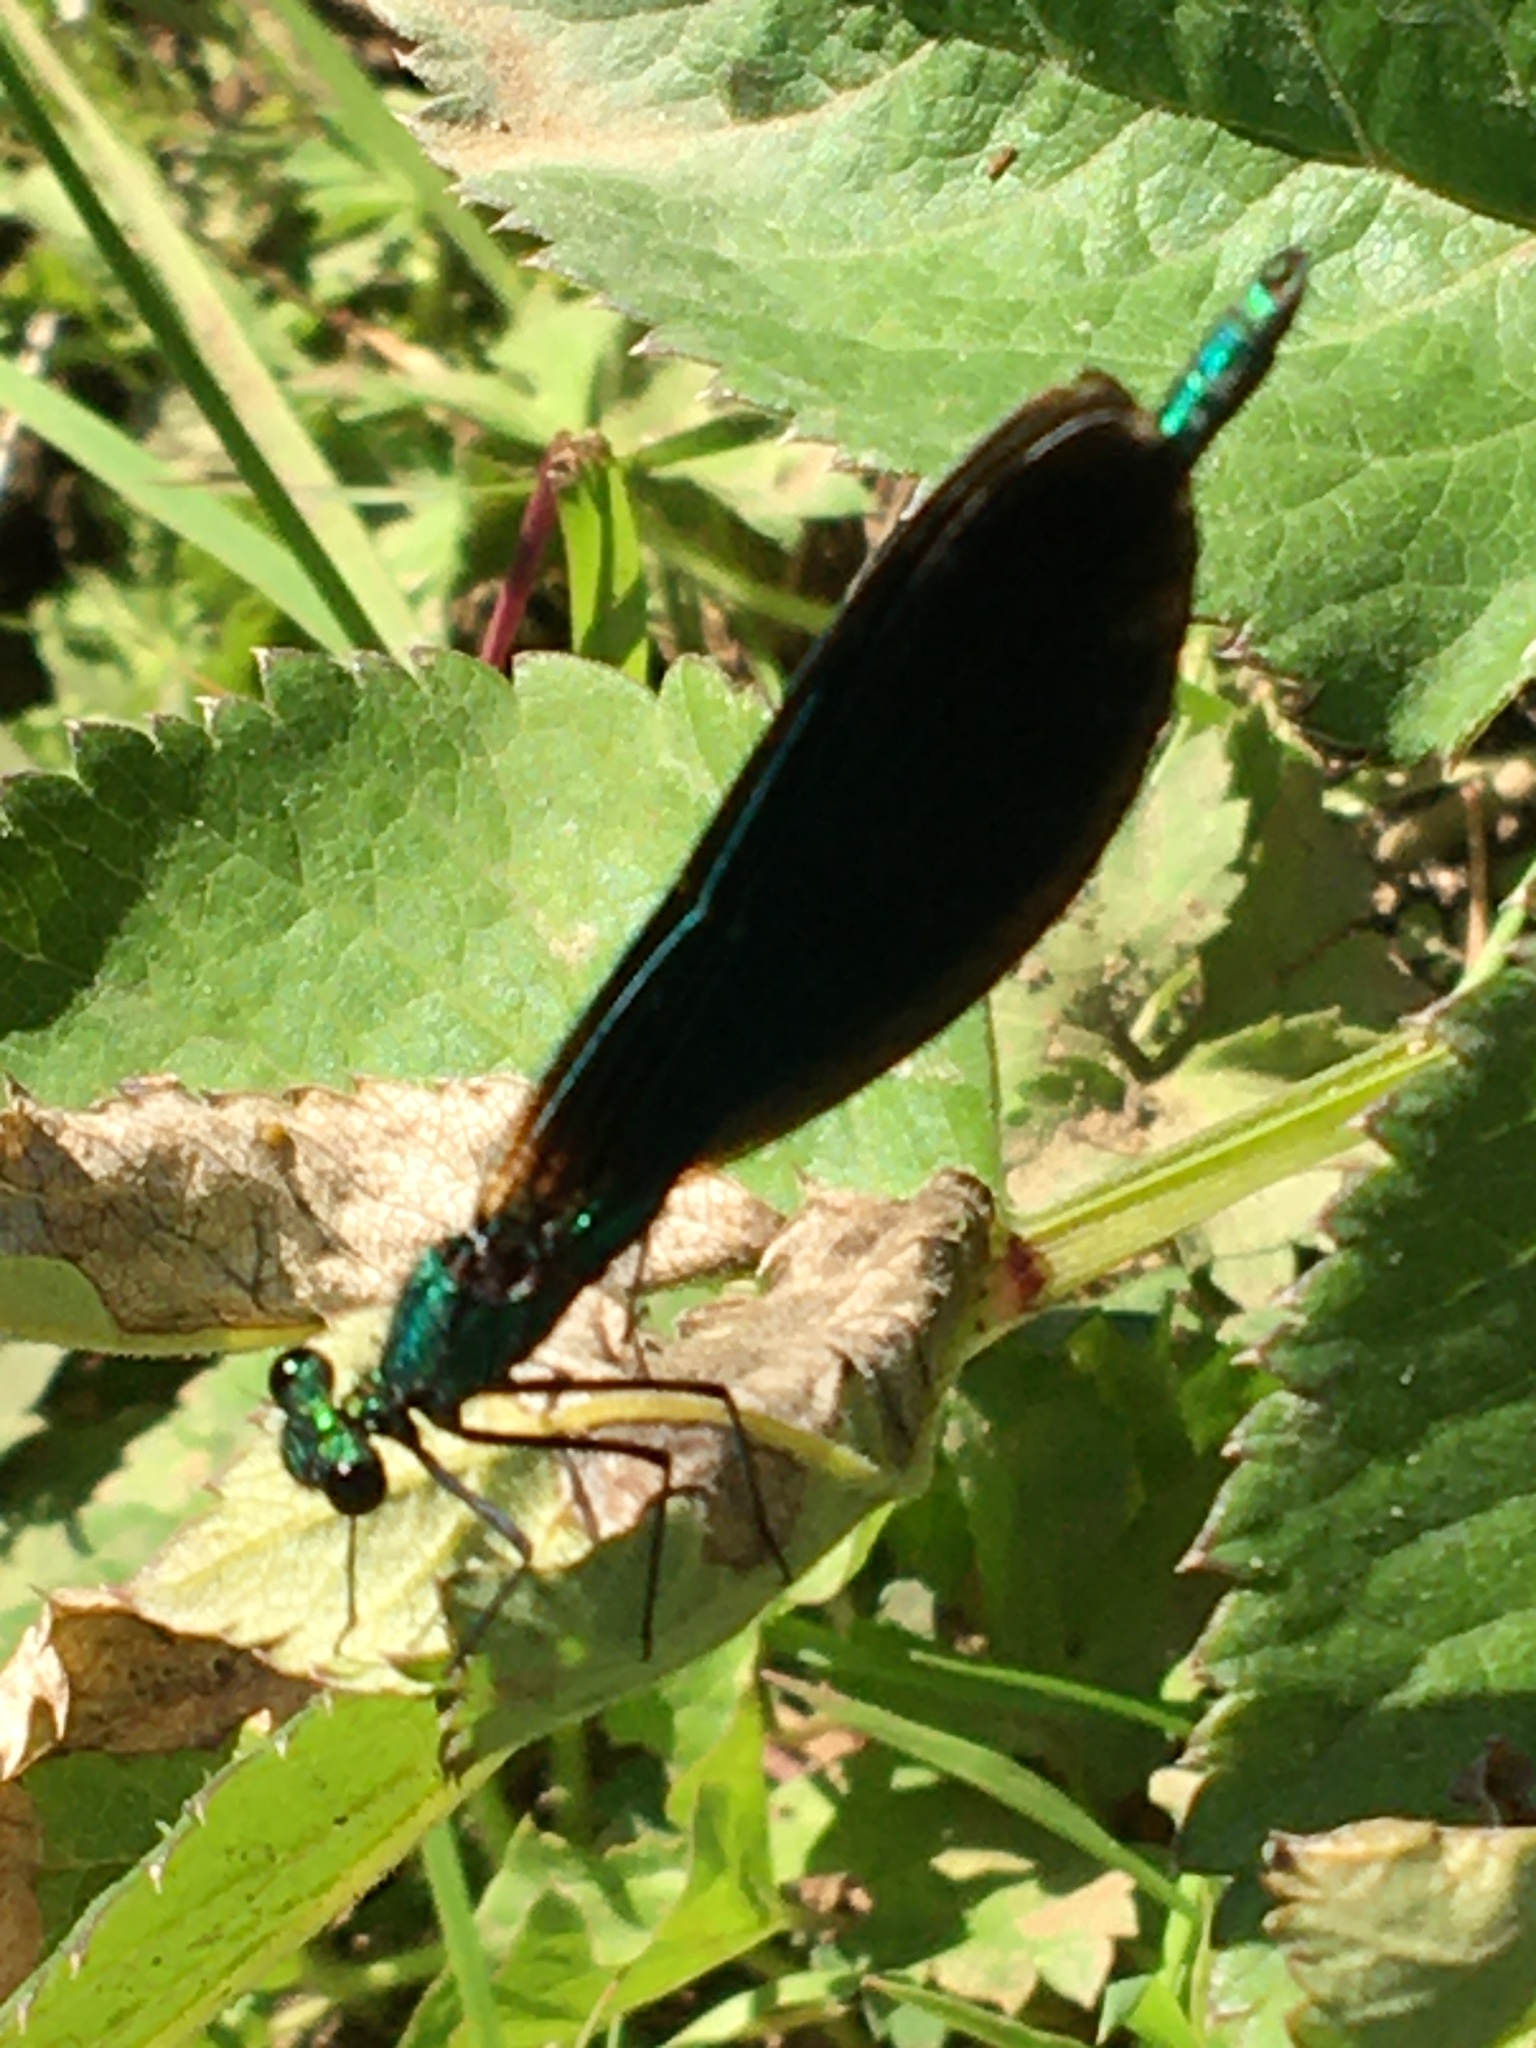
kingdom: Animalia
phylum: Arthropoda
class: Insecta
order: Odonata
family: Calopterygidae
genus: Calopteryx
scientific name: Calopteryx virgo
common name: Beautiful demoiselle
